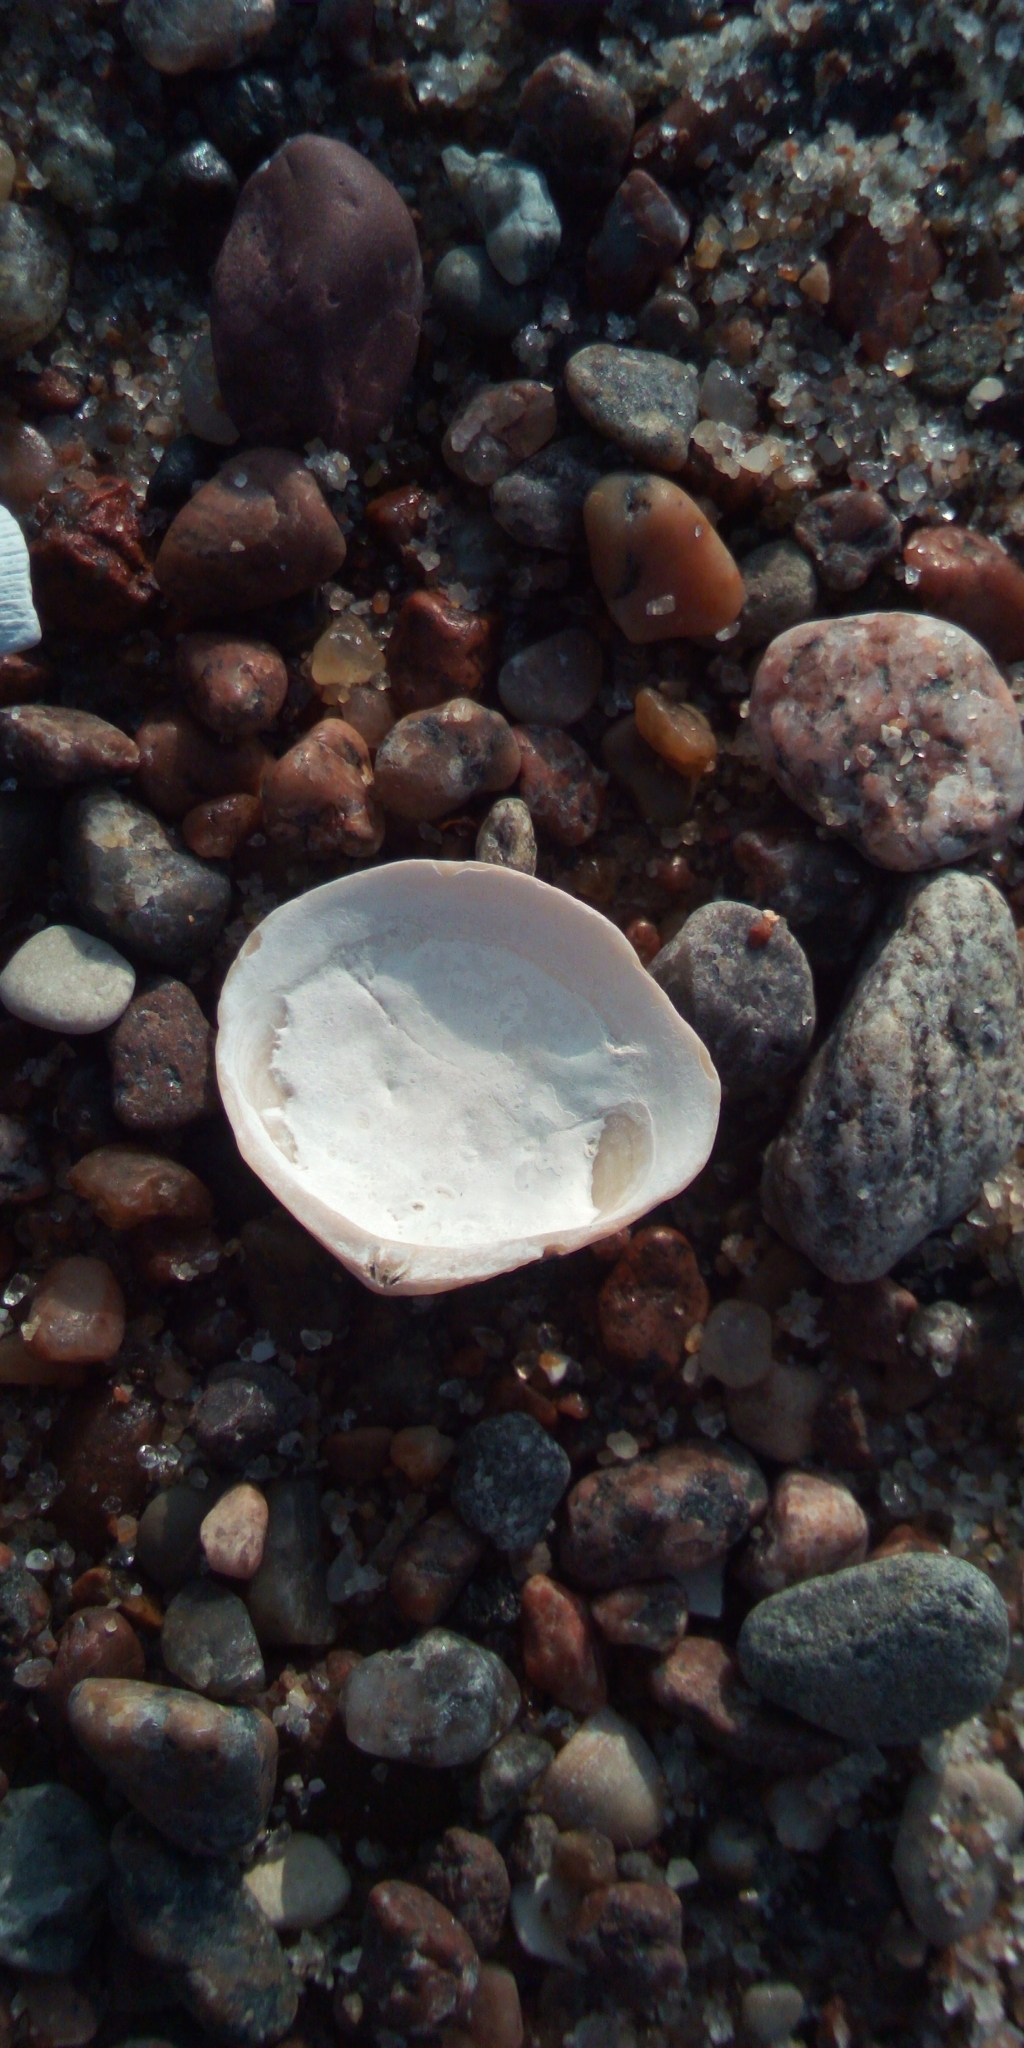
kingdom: Animalia
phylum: Mollusca
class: Bivalvia
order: Cardiida
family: Tellinidae
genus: Macoma
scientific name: Macoma balthica
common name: Baltic tellin
